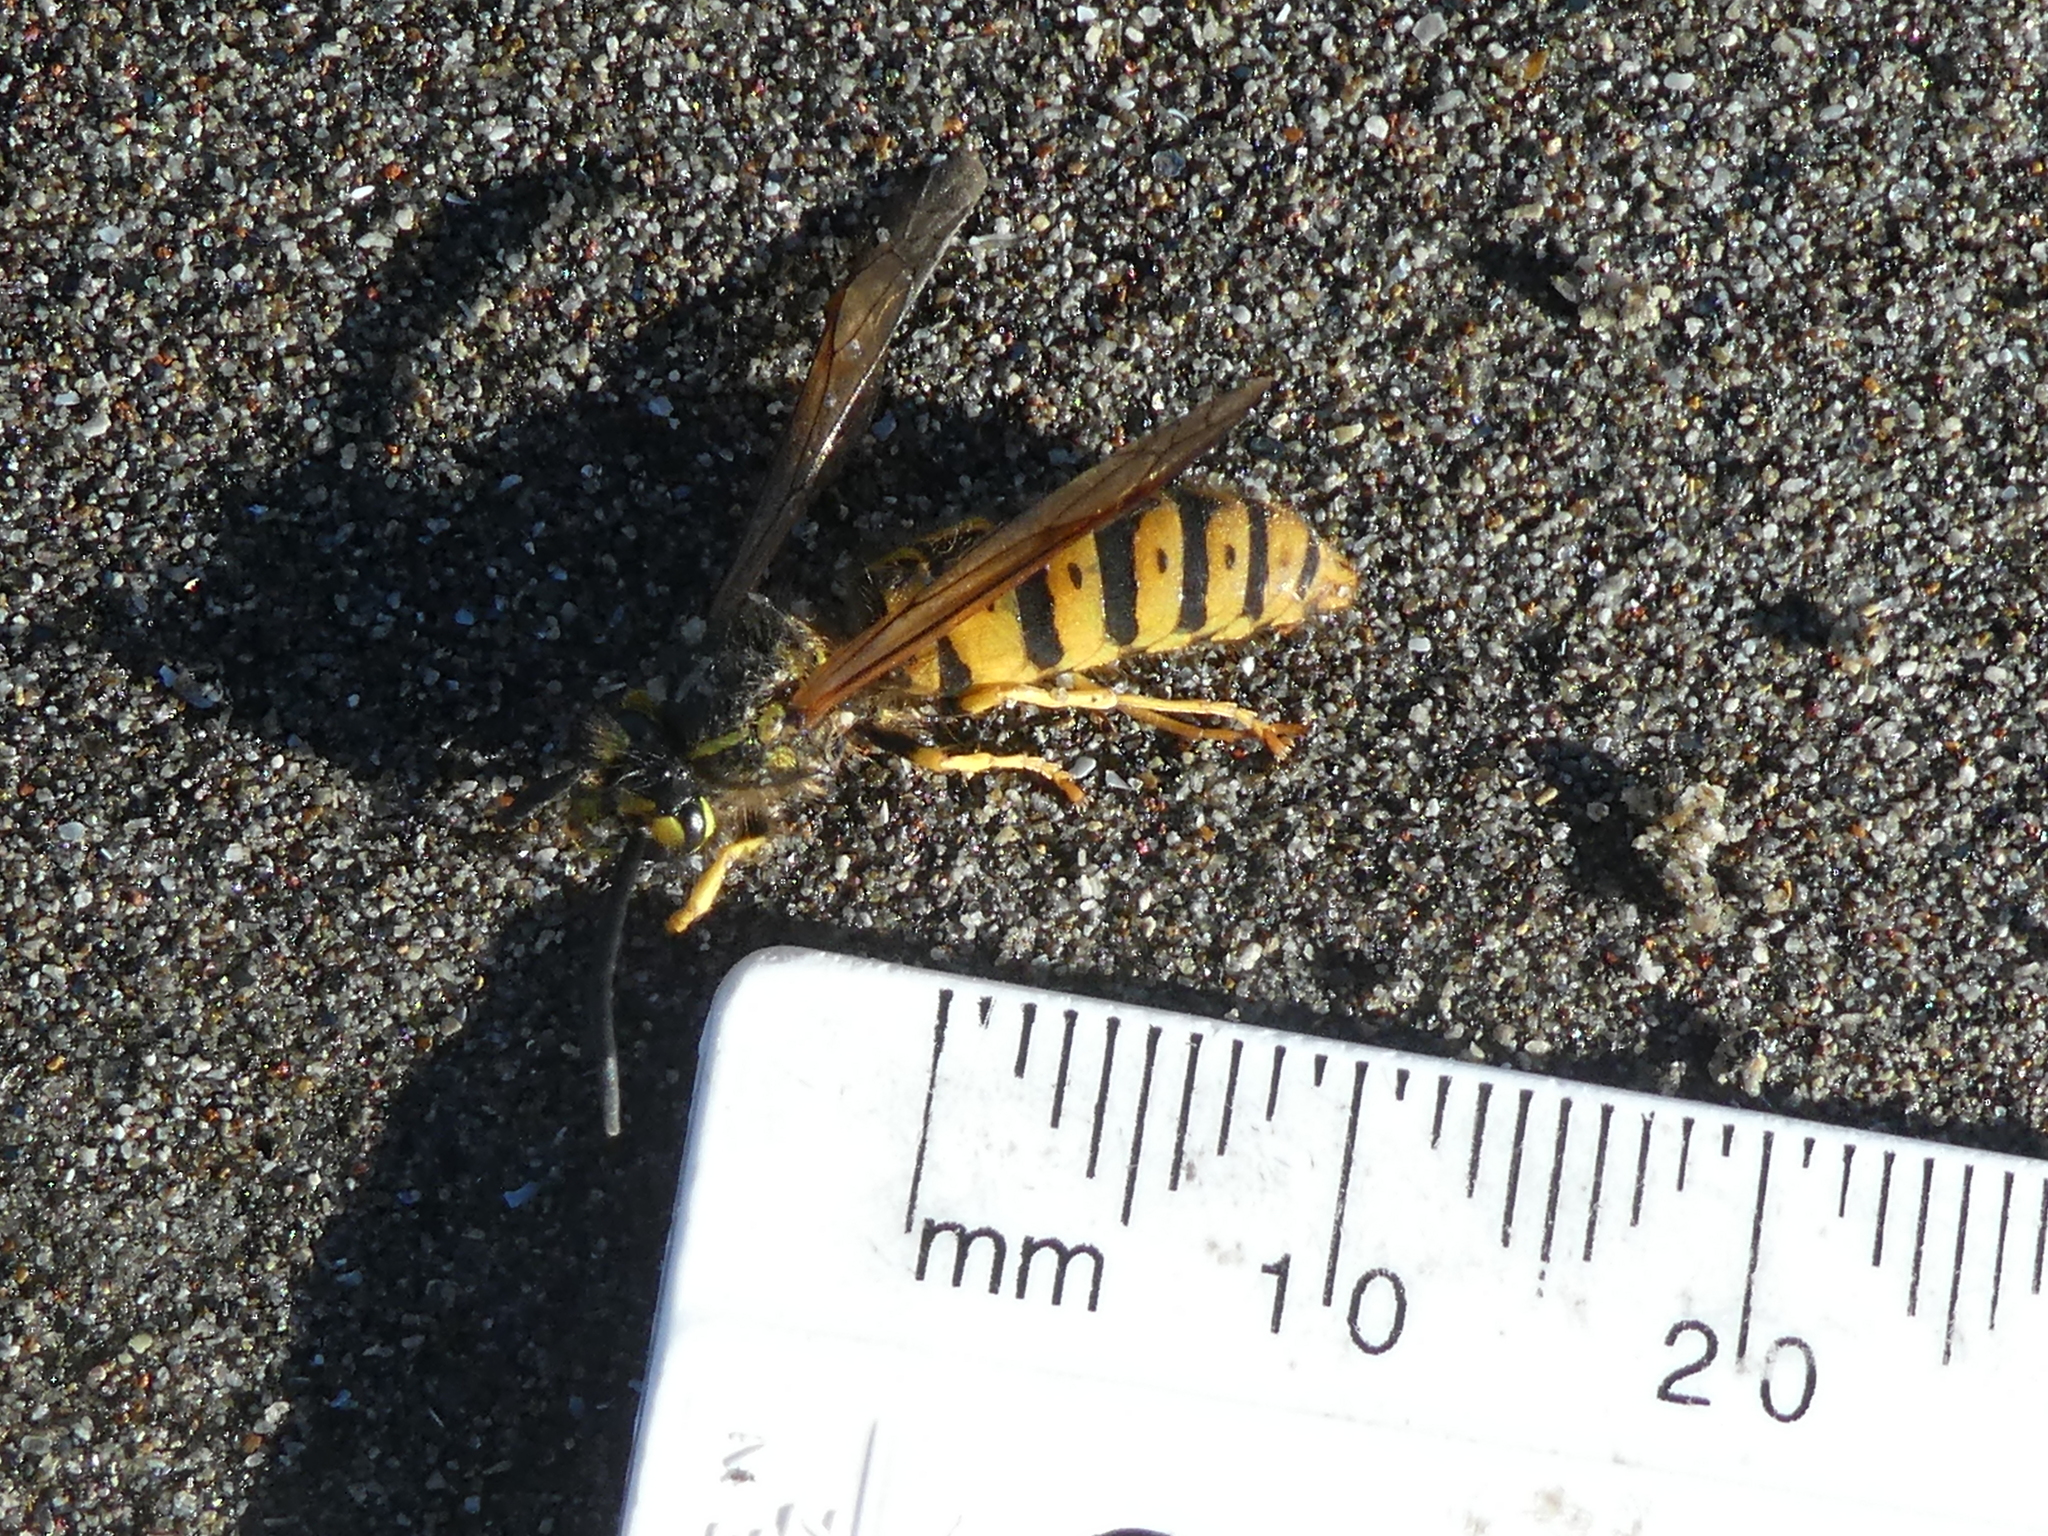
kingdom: Animalia
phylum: Arthropoda
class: Insecta
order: Hymenoptera
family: Vespidae
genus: Vespula
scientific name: Vespula germanica
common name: German wasp
